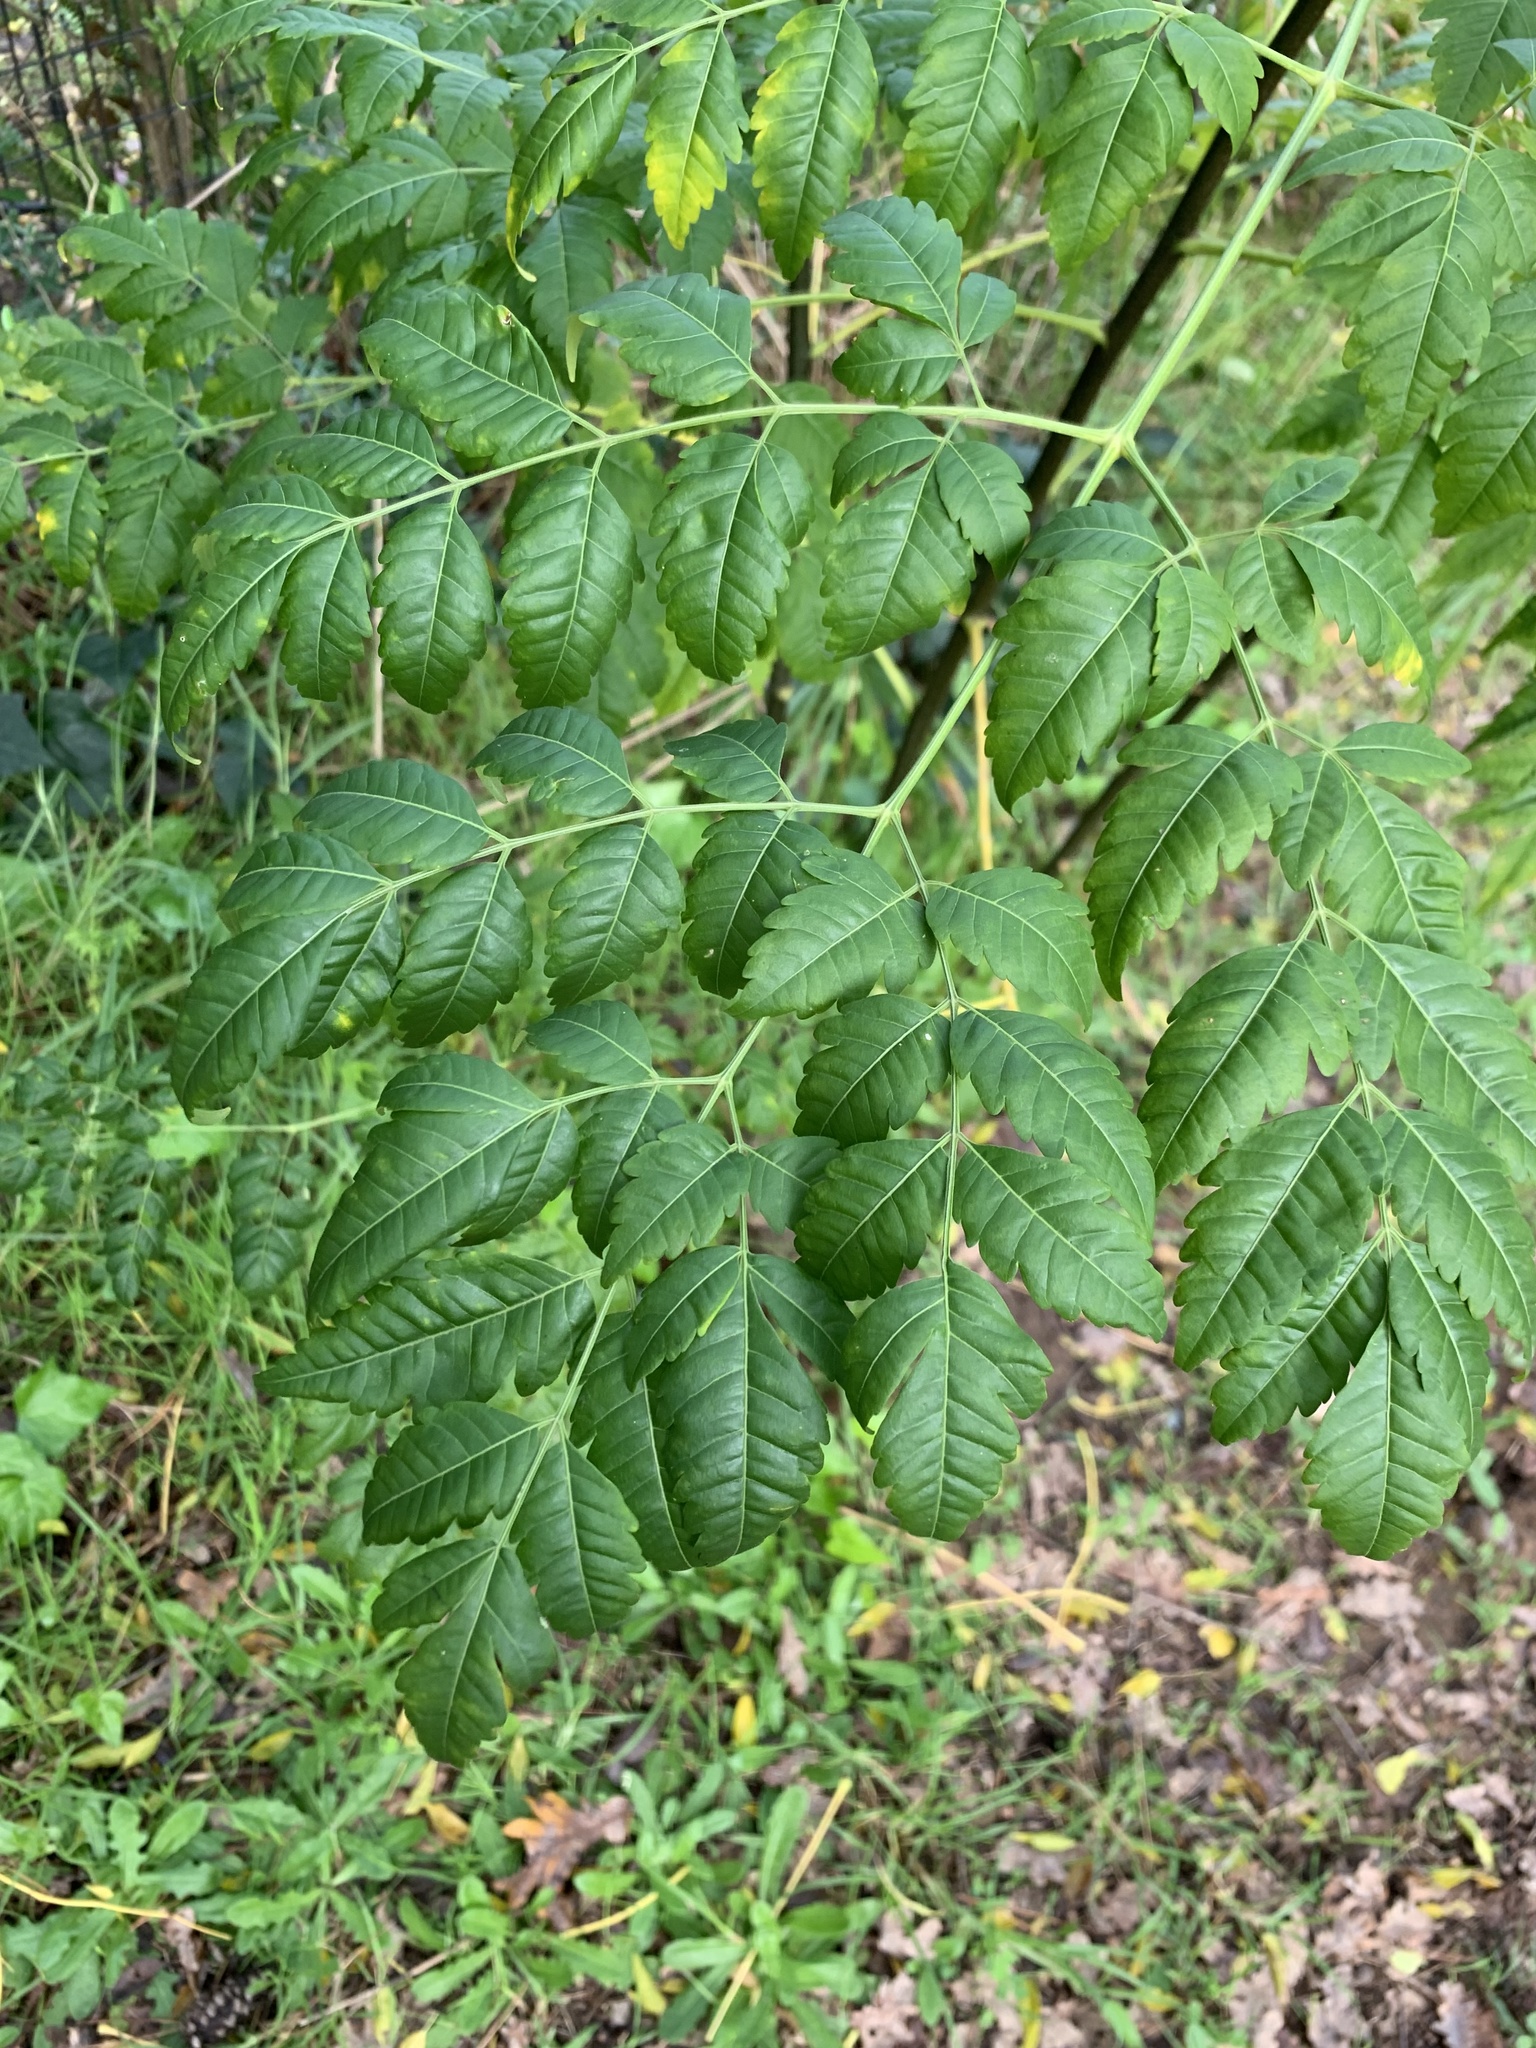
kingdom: Plantae
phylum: Tracheophyta
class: Magnoliopsida
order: Sapindales
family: Meliaceae
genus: Melia
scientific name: Melia azedarach
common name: Chinaberrytree
